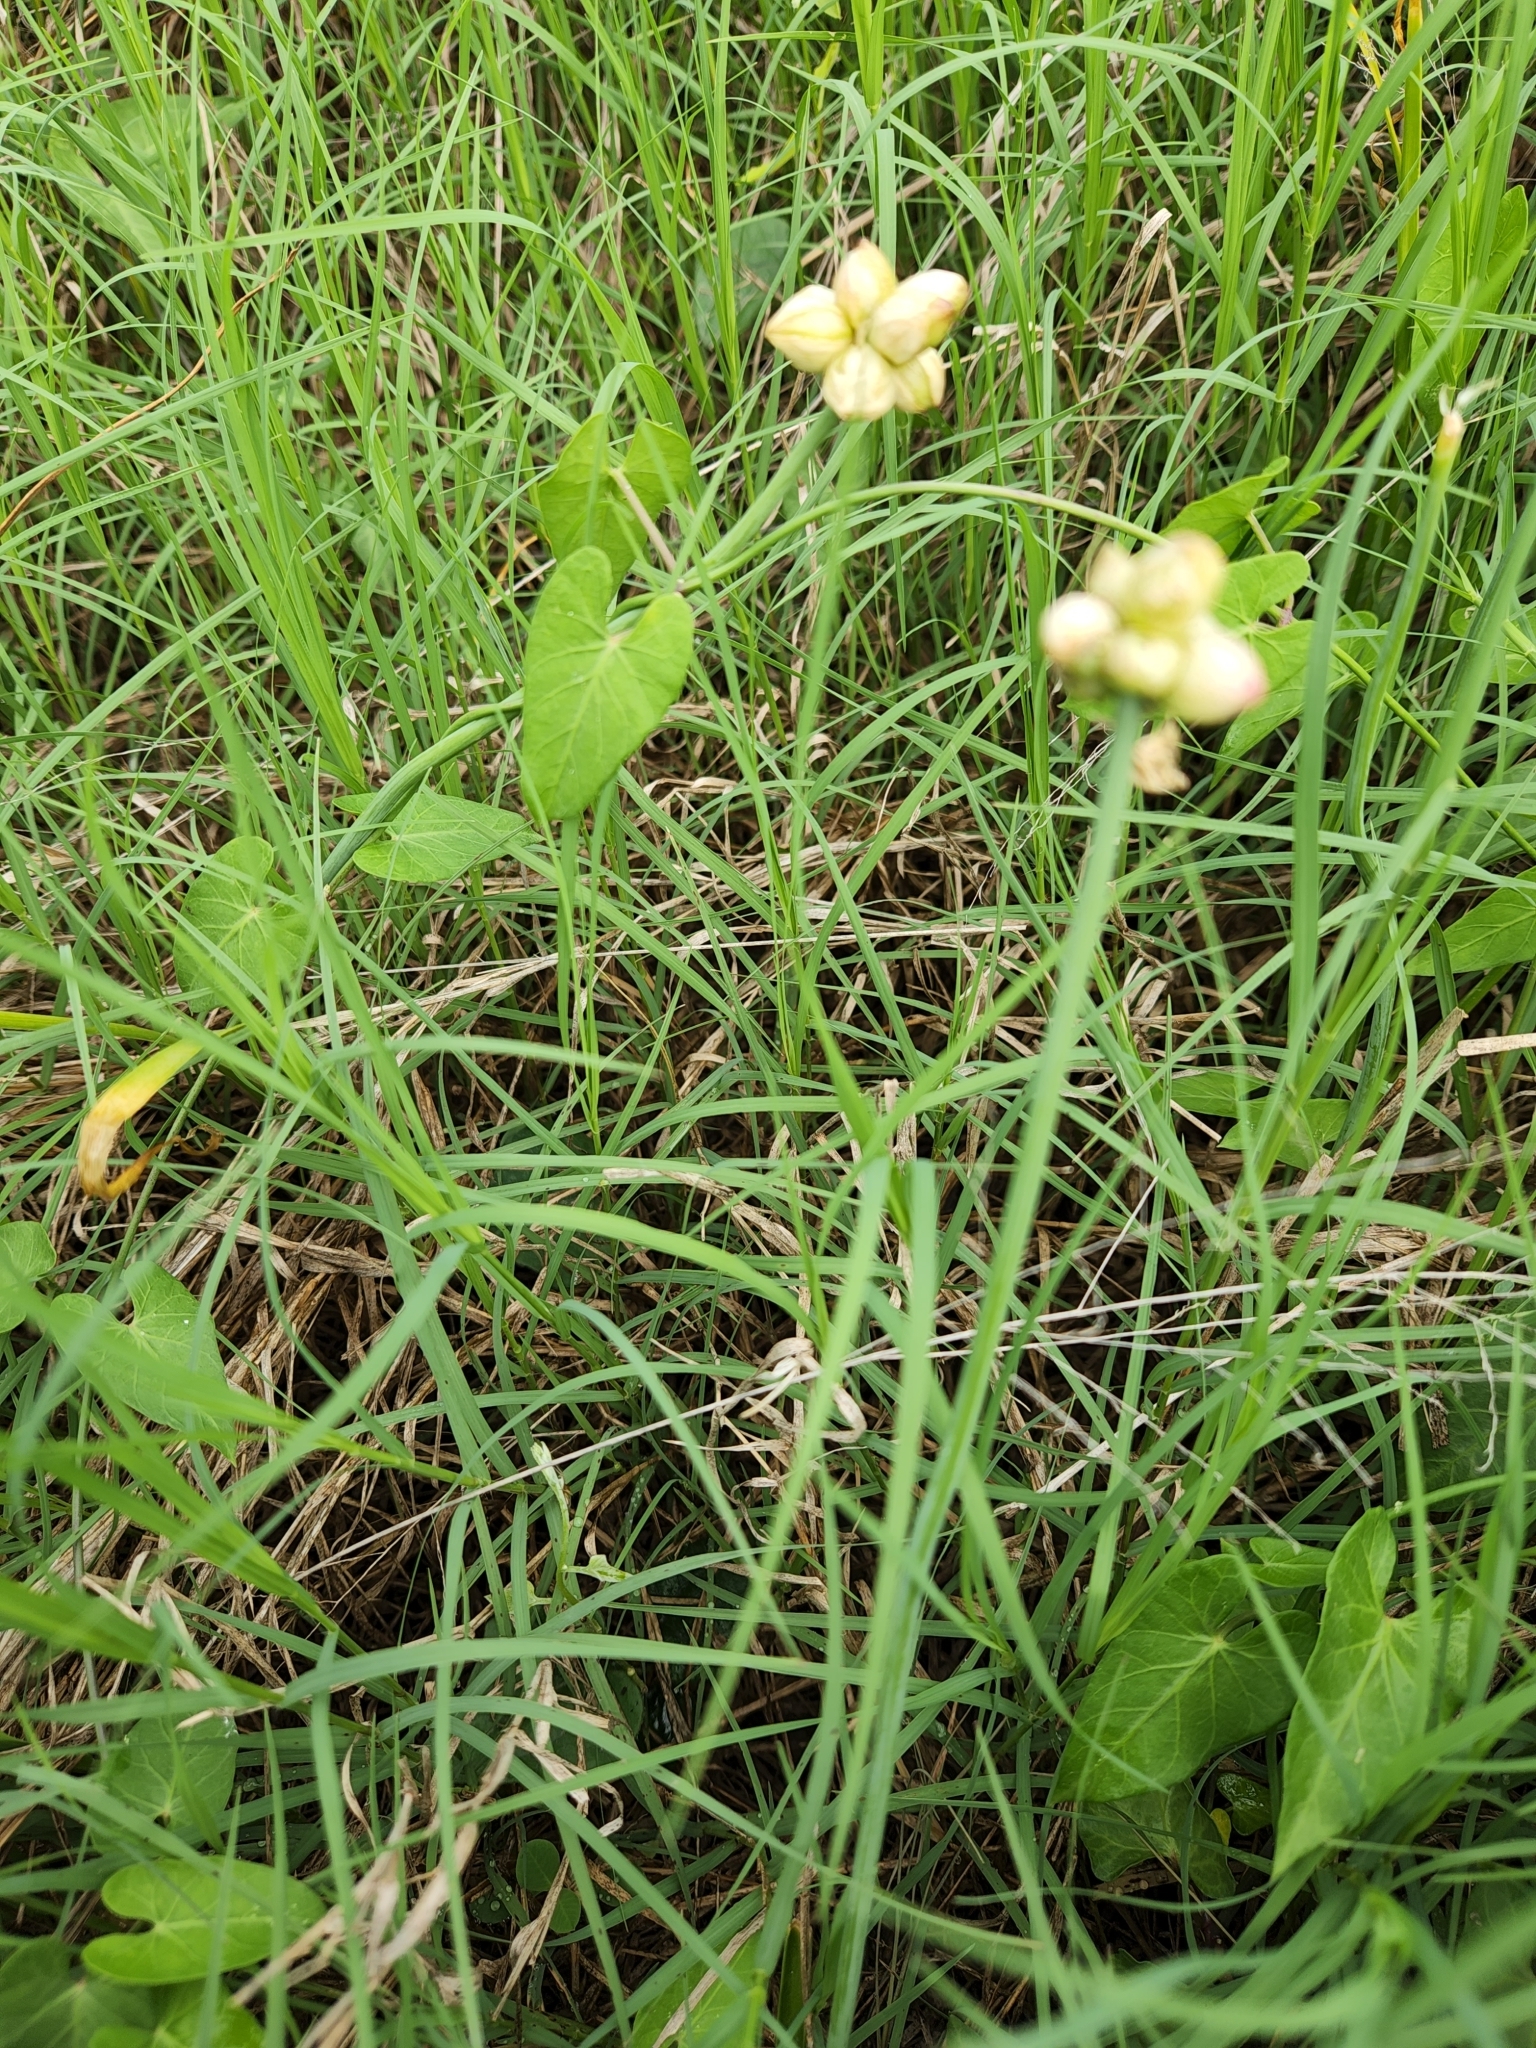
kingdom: Plantae
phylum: Tracheophyta
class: Liliopsida
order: Asparagales
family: Amaryllidaceae
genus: Allium
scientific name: Allium canadense
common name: Meadow garlic
